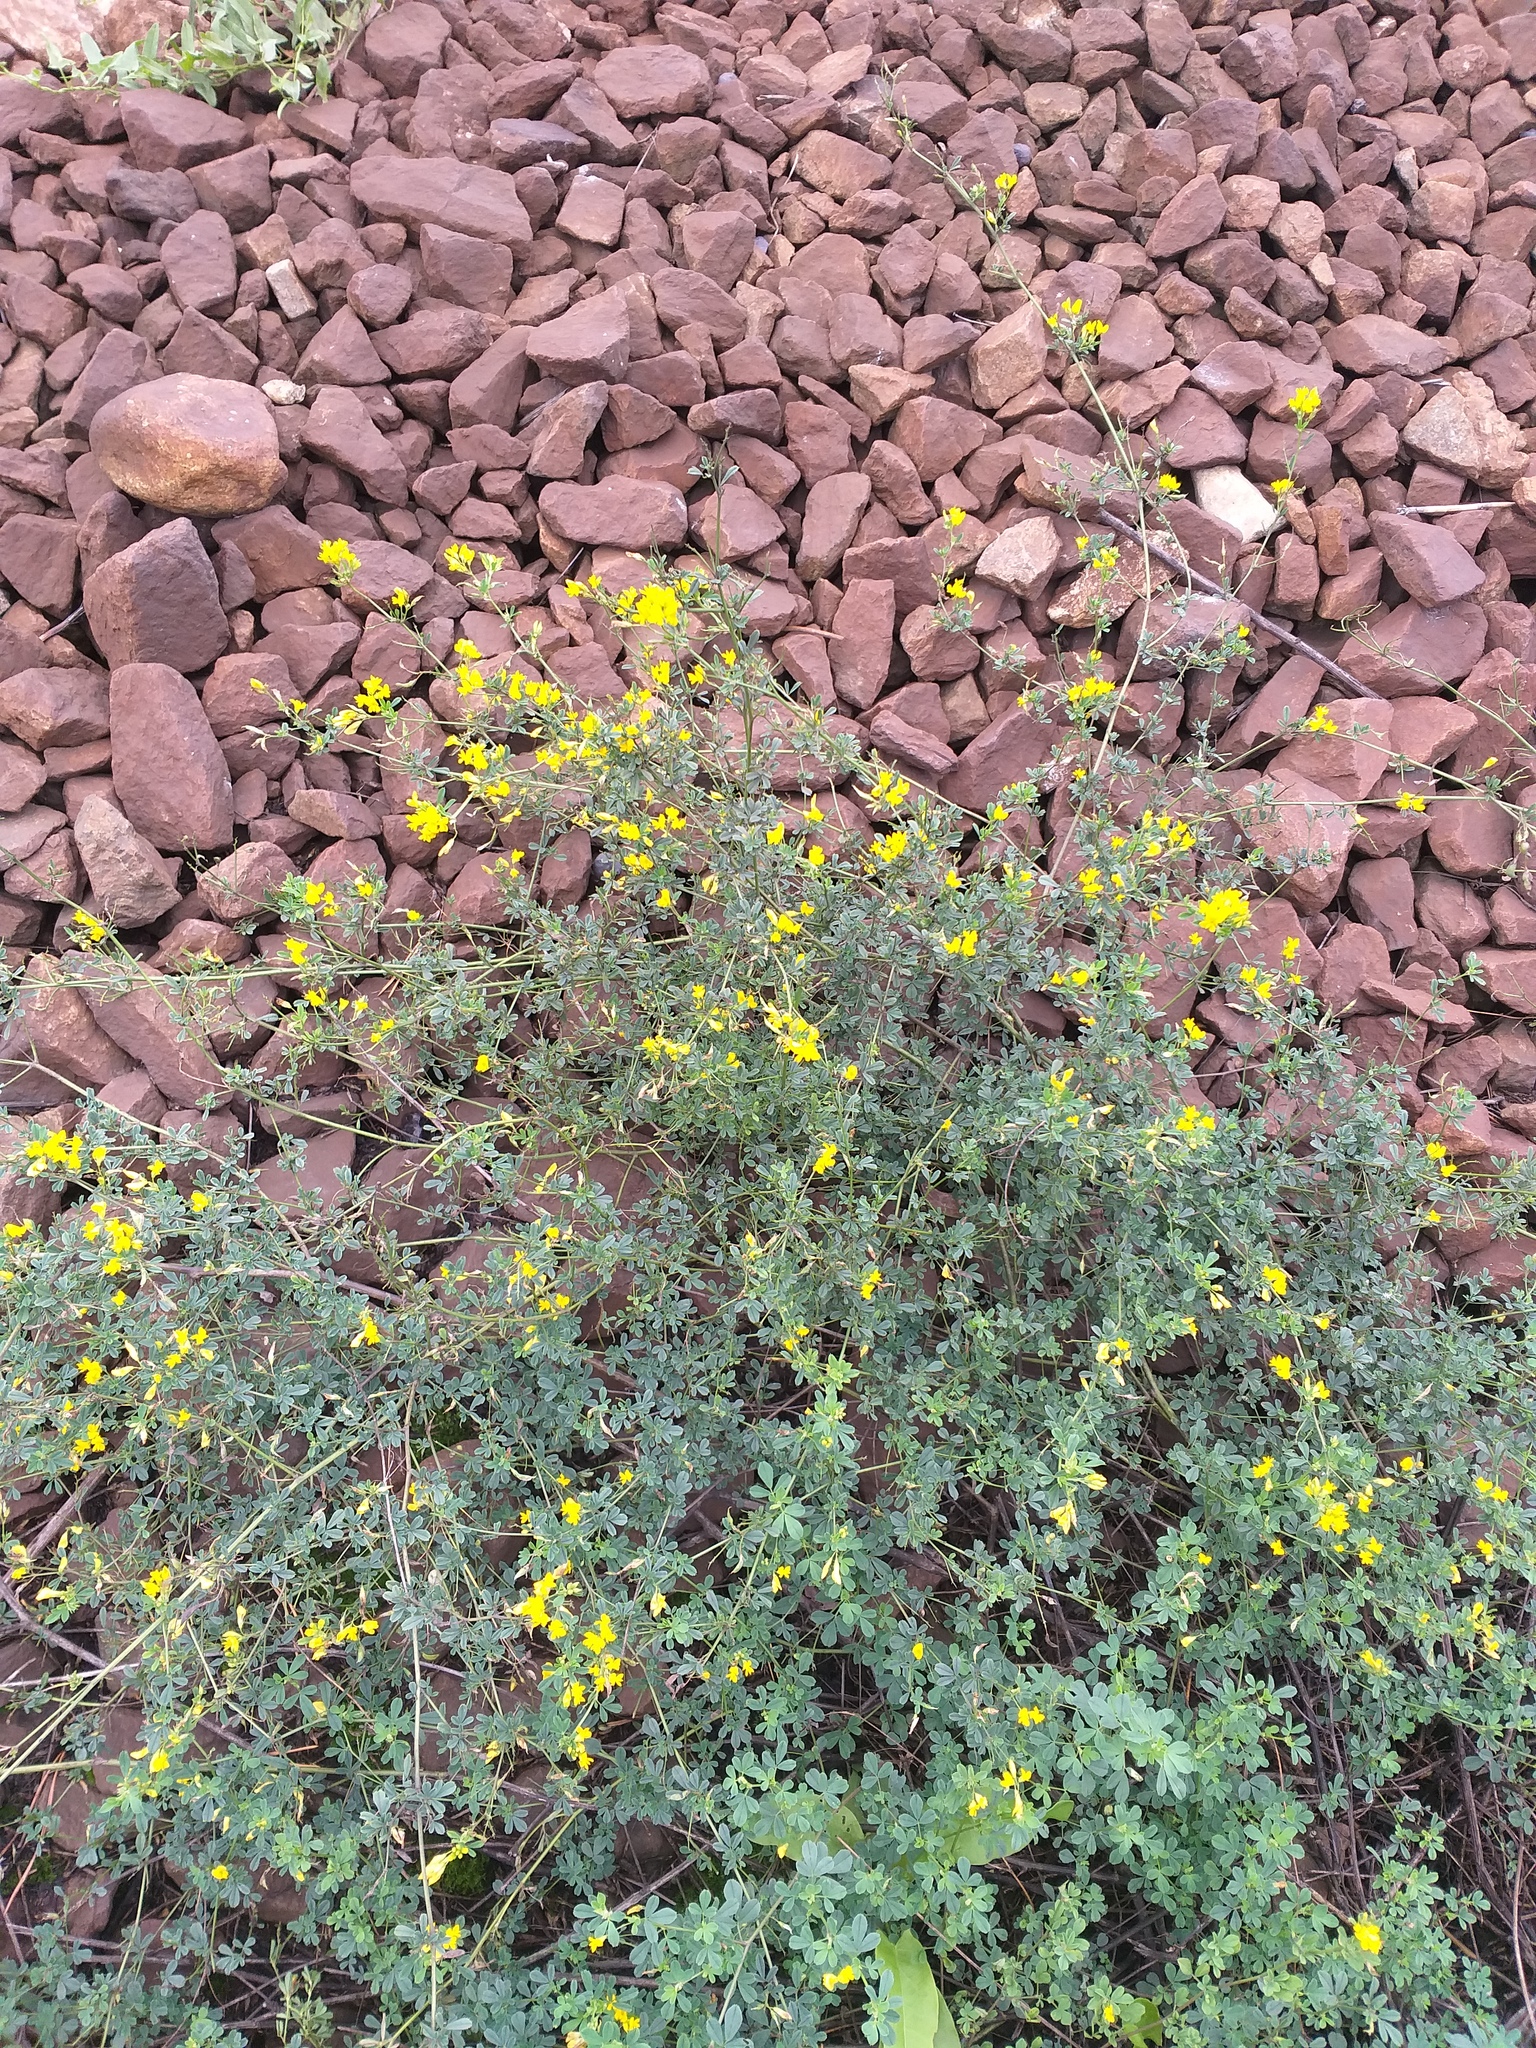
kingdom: Plantae
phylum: Tracheophyta
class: Magnoliopsida
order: Fabales
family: Fabaceae
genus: Medicago
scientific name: Medicago falcata
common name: Sickle medick
